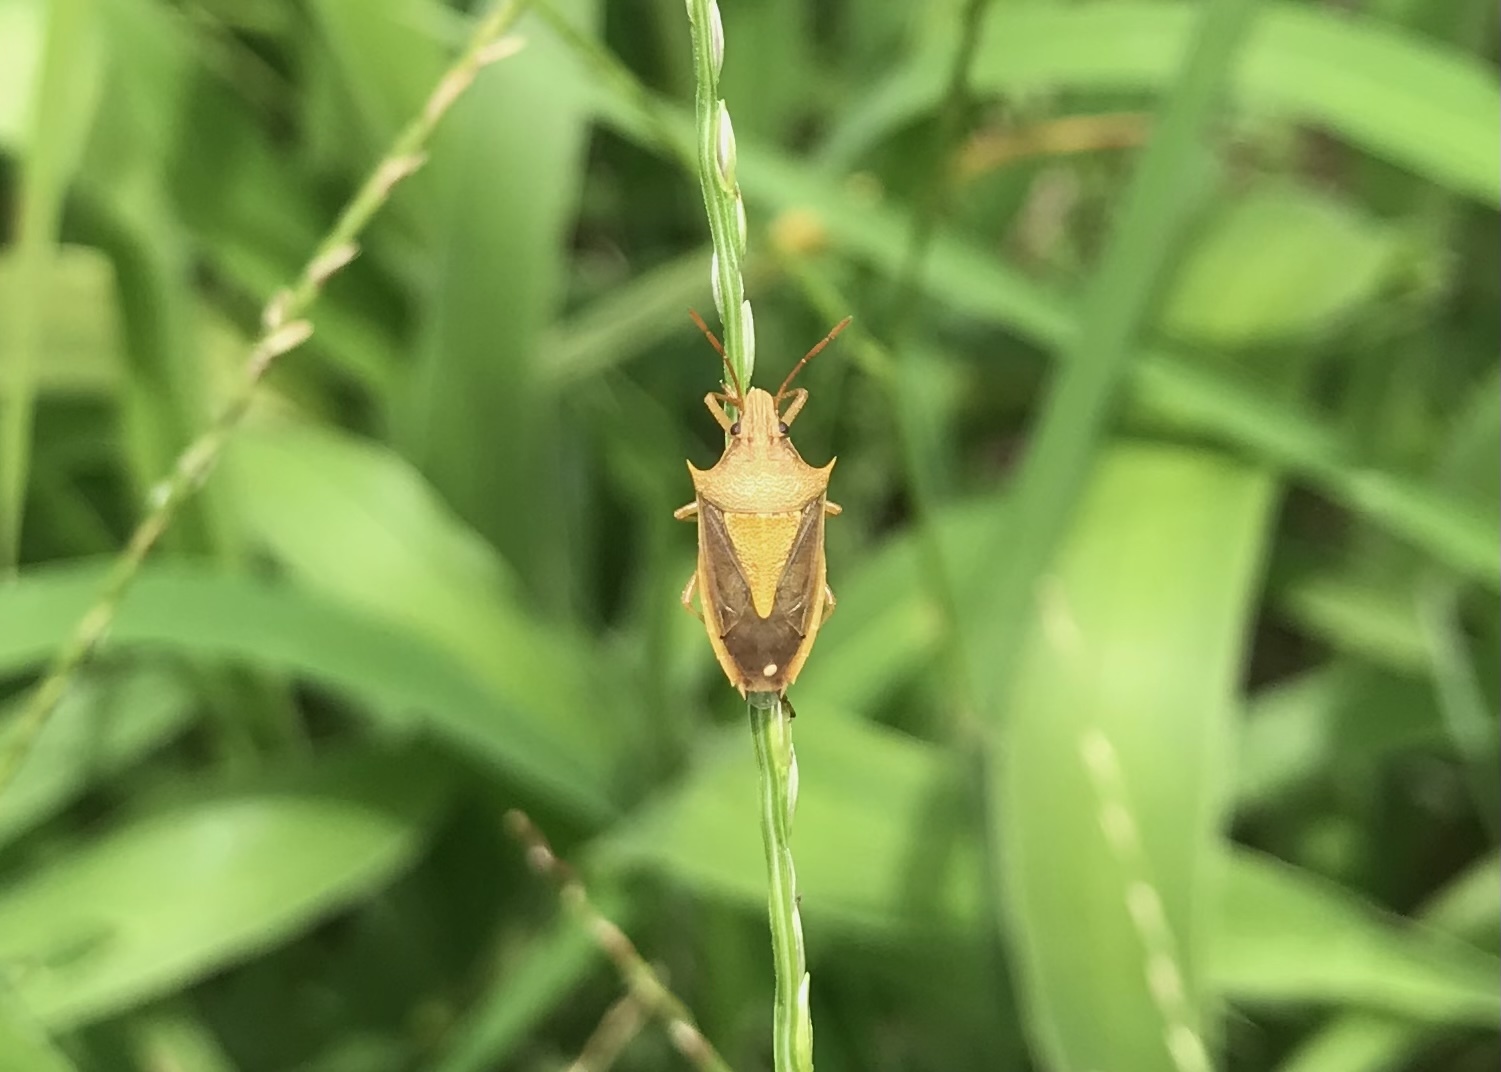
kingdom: Animalia
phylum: Arthropoda
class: Insecta
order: Hemiptera
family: Pentatomidae
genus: Oebalus
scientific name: Oebalus pugnax
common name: Rice stink bug
